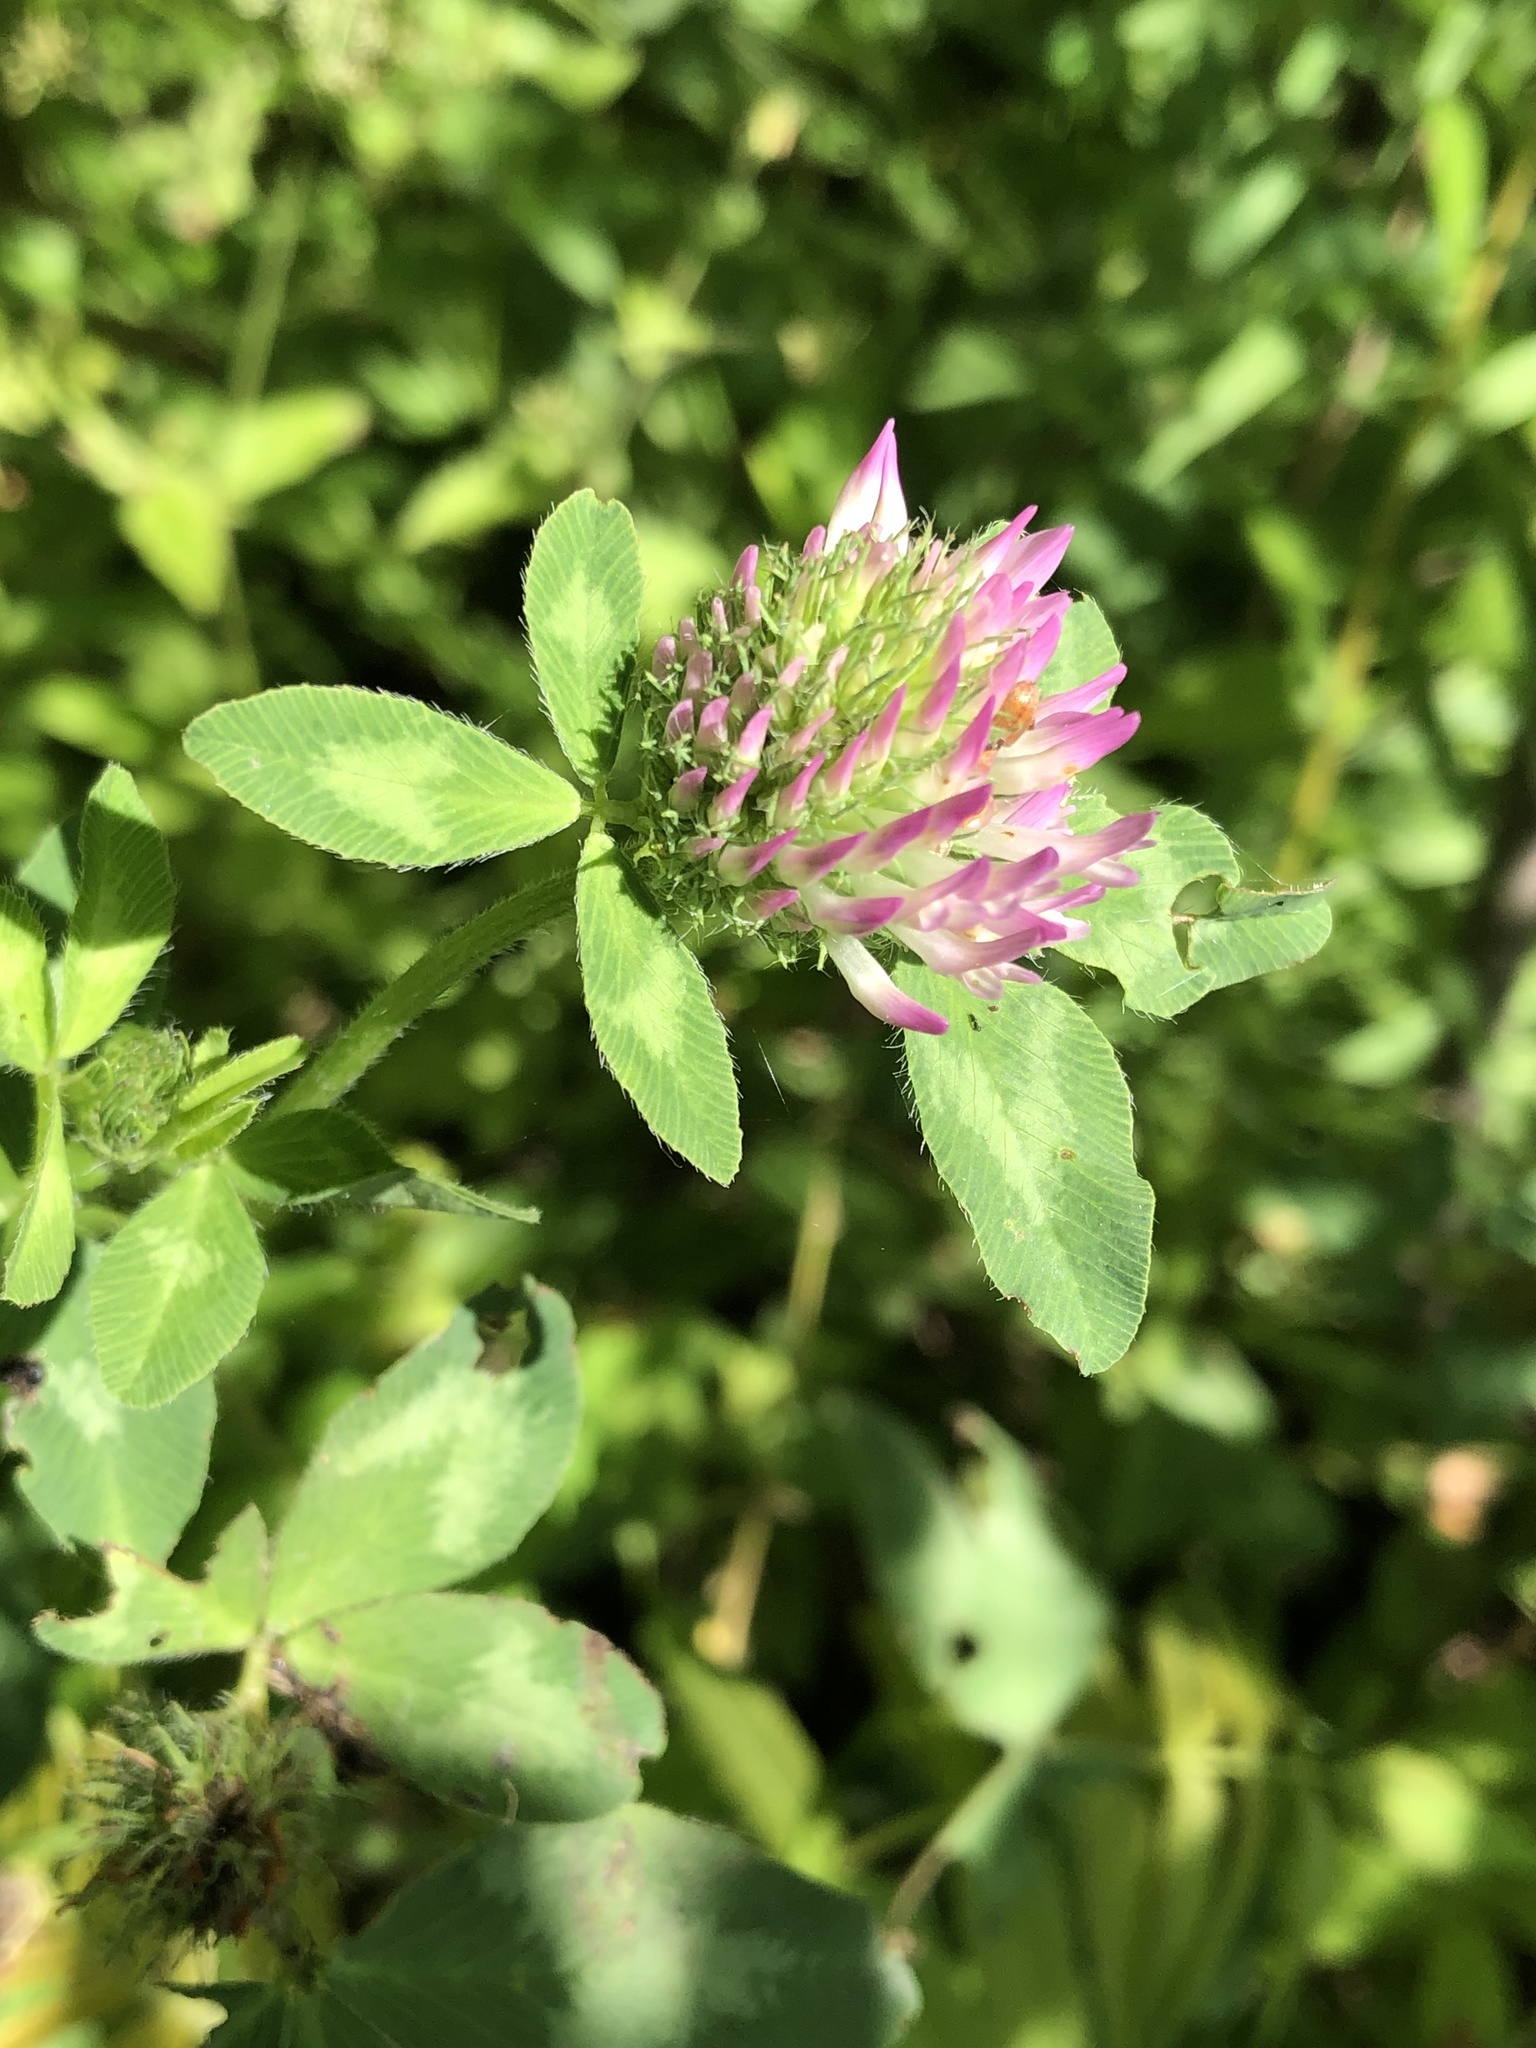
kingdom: Plantae
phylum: Tracheophyta
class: Magnoliopsida
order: Fabales
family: Fabaceae
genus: Trifolium
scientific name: Trifolium pratense
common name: Red clover
